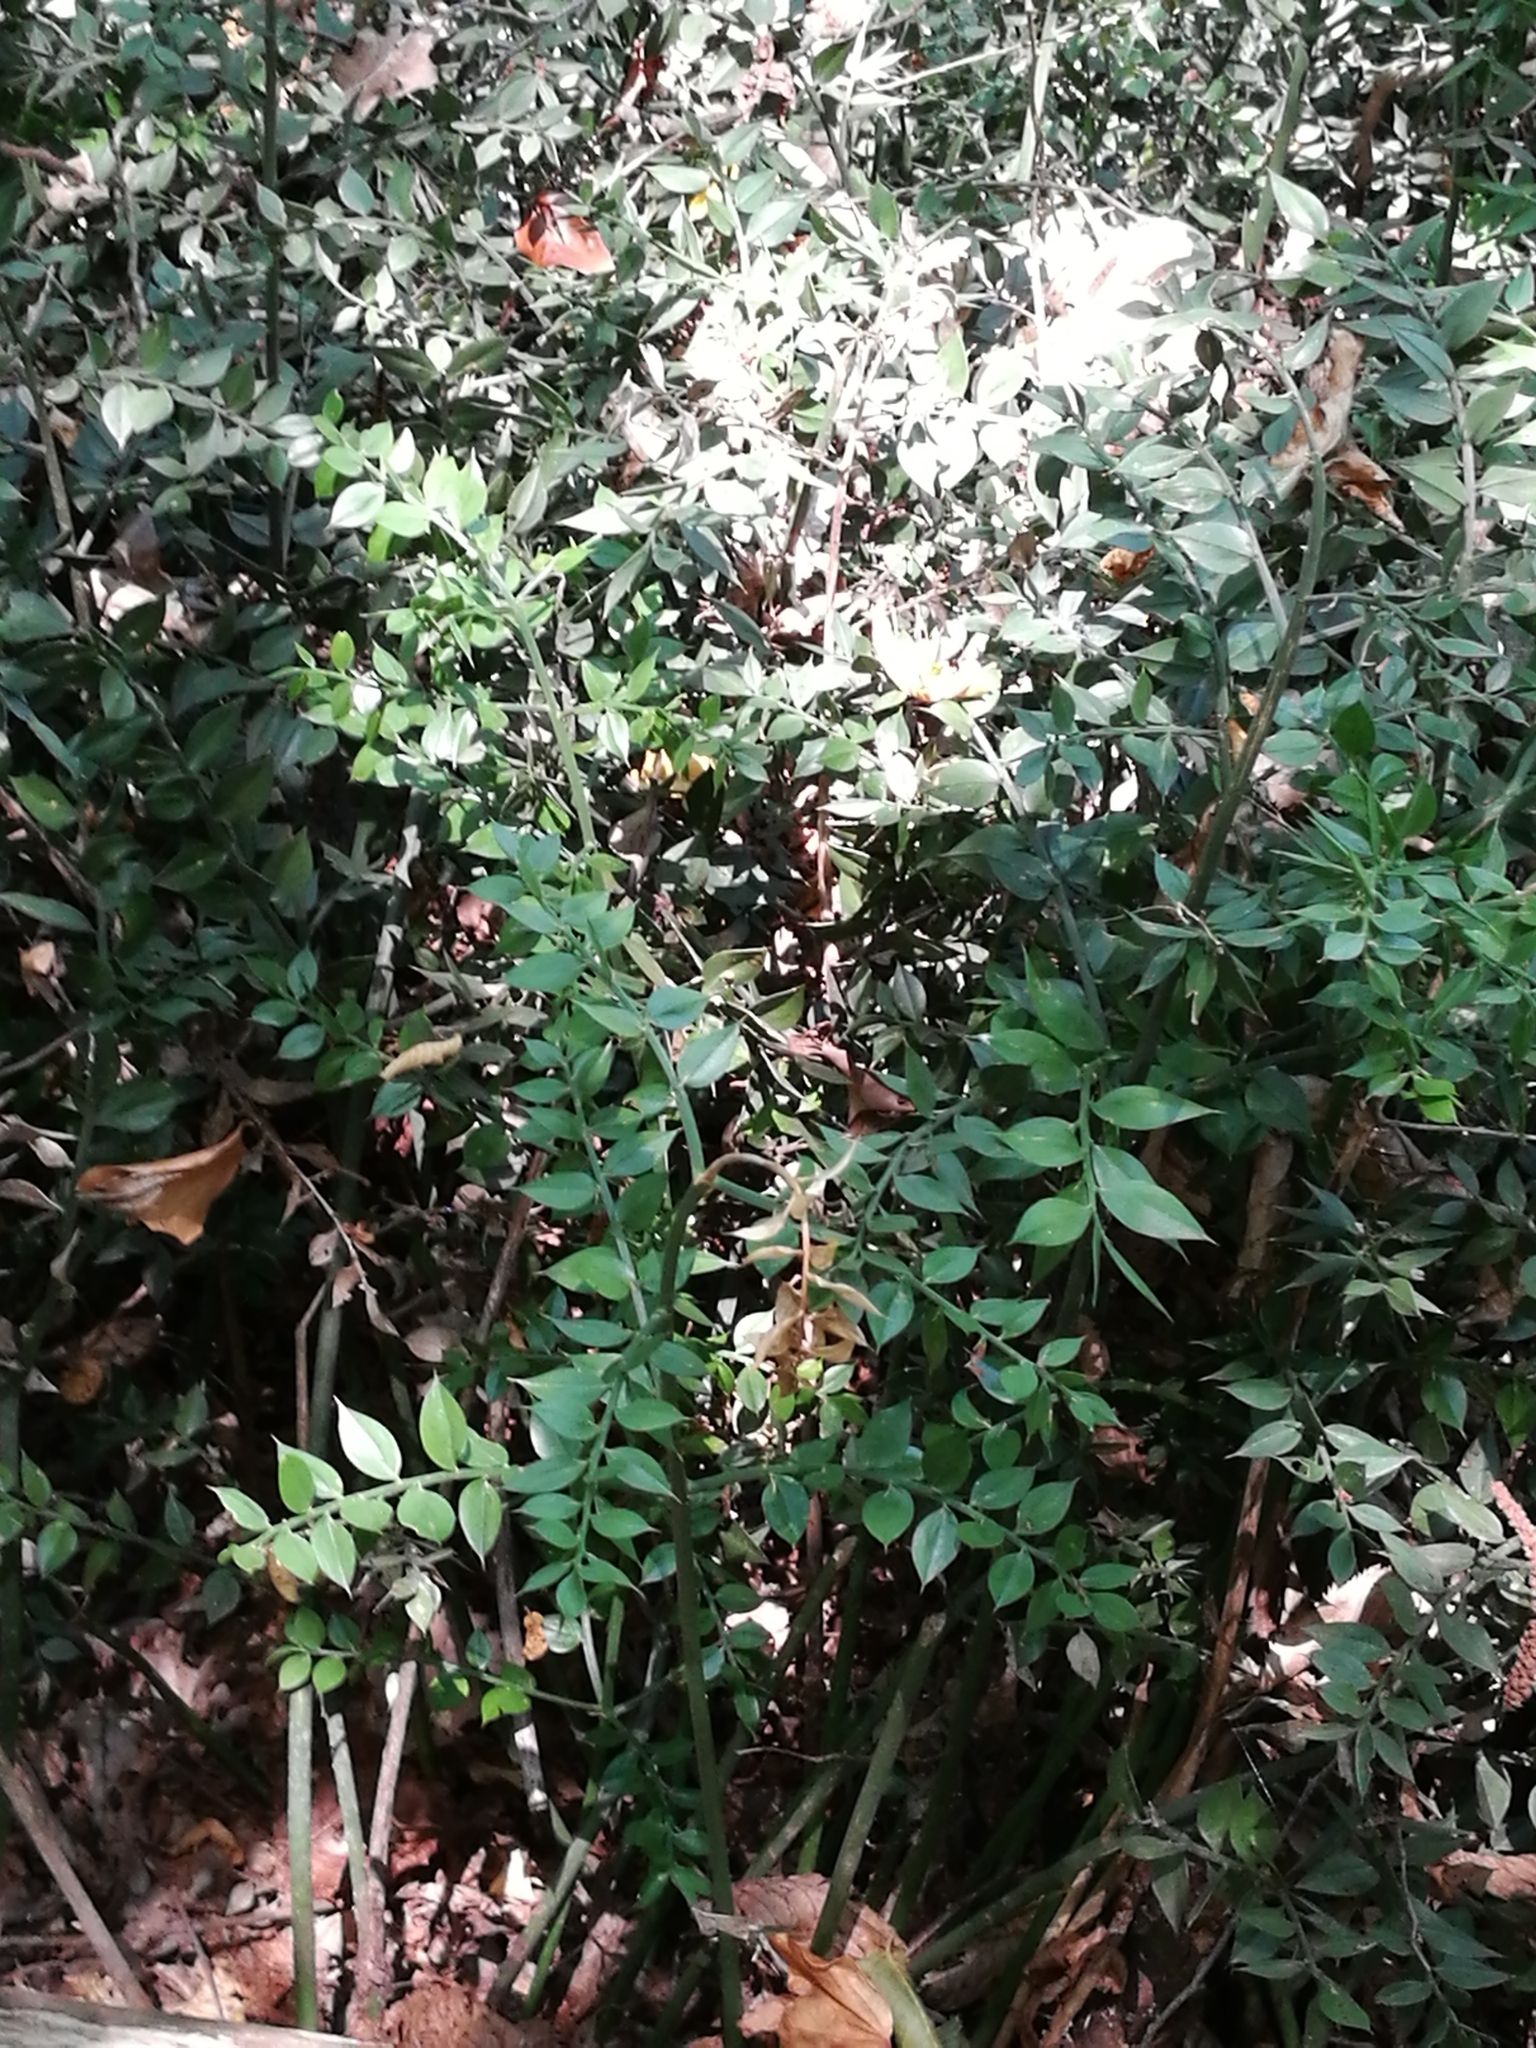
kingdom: Plantae
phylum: Tracheophyta
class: Liliopsida
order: Asparagales
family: Asparagaceae
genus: Ruscus
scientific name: Ruscus aculeatus
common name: Butcher's-broom
